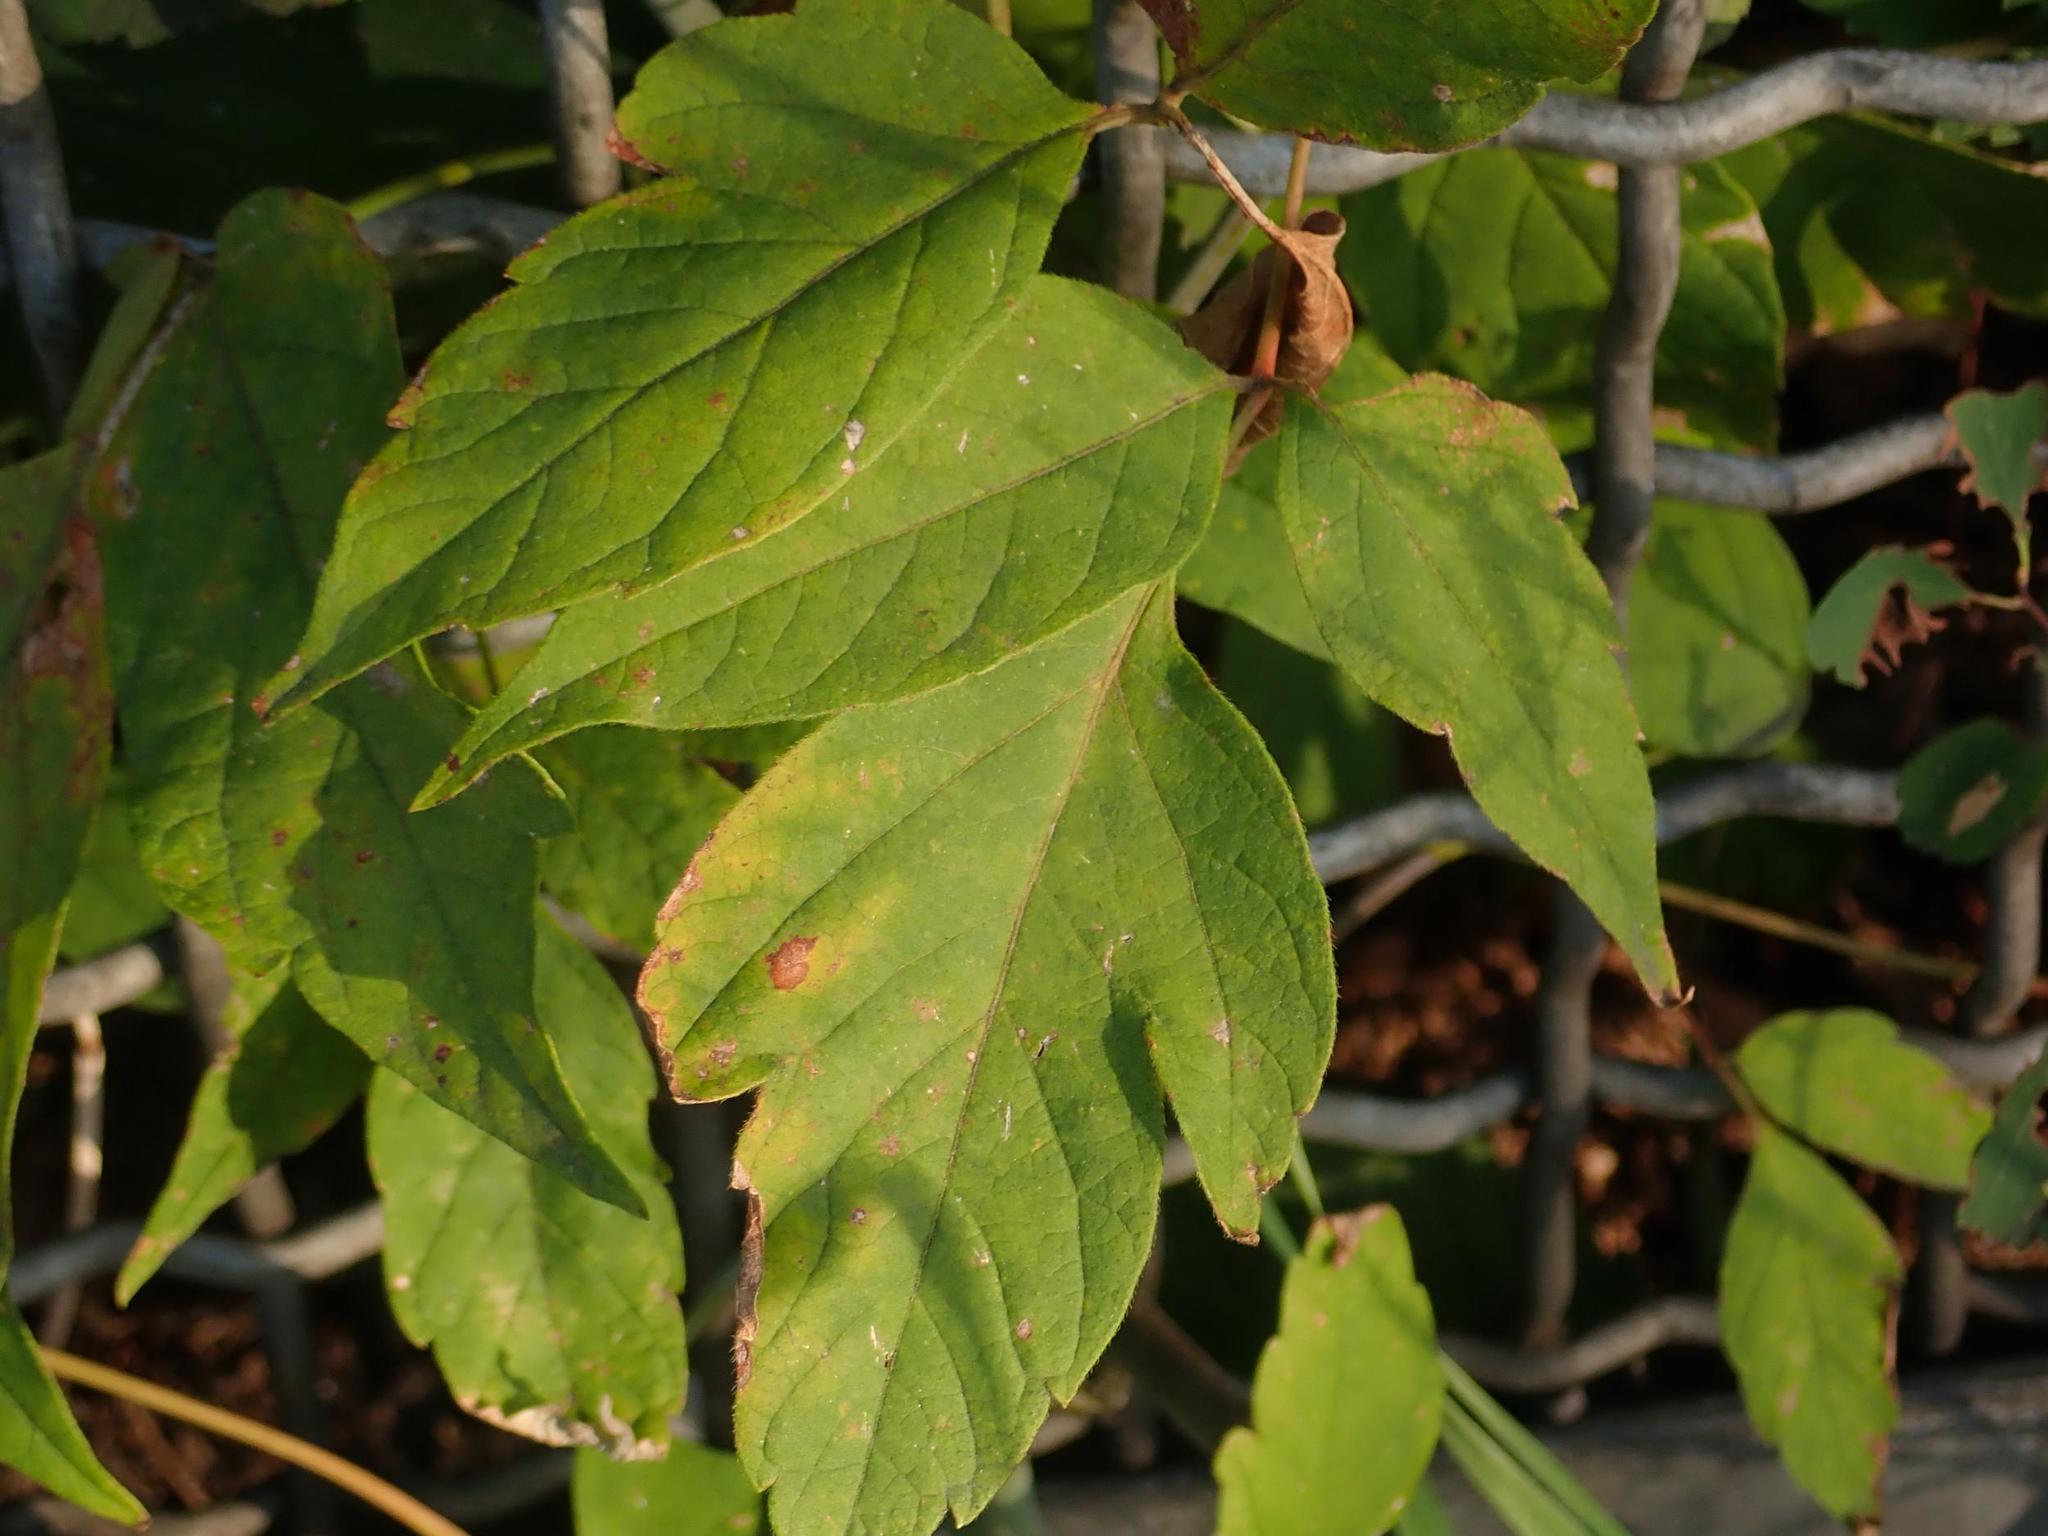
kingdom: Plantae
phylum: Tracheophyta
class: Magnoliopsida
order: Sapindales
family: Sapindaceae
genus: Acer
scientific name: Acer negundo
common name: Ashleaf maple
